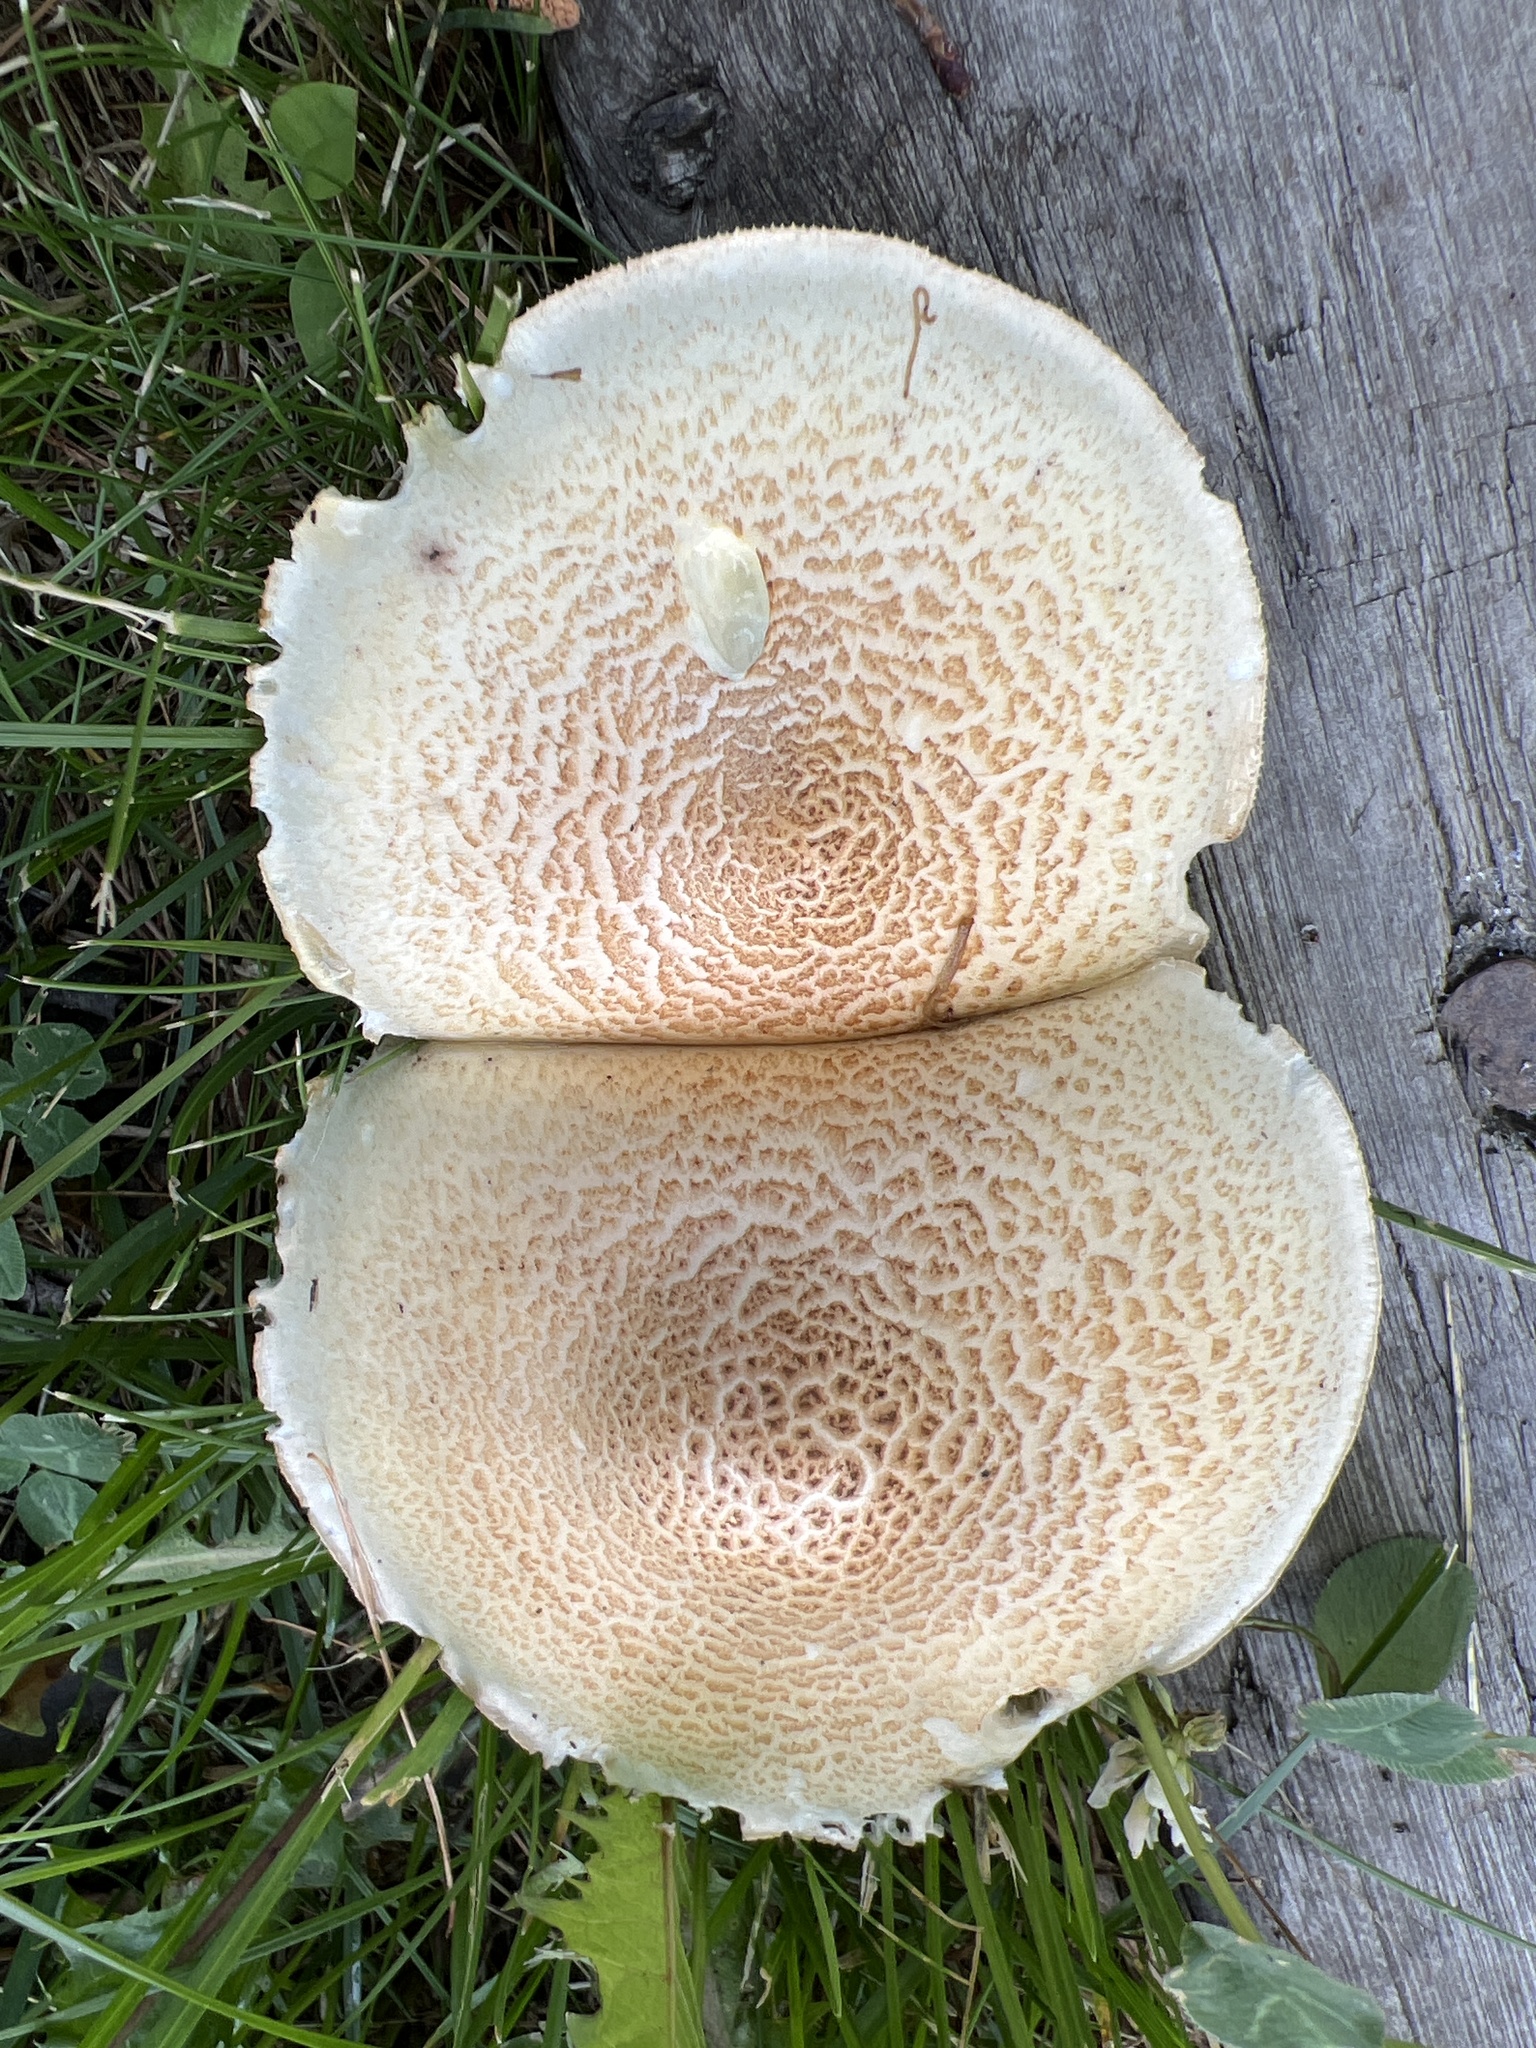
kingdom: Fungi
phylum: Basidiomycota
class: Agaricomycetes
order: Gloeophyllales
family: Gloeophyllaceae
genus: Neolentinus
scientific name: Neolentinus lepideus
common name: Scaly sawgill
